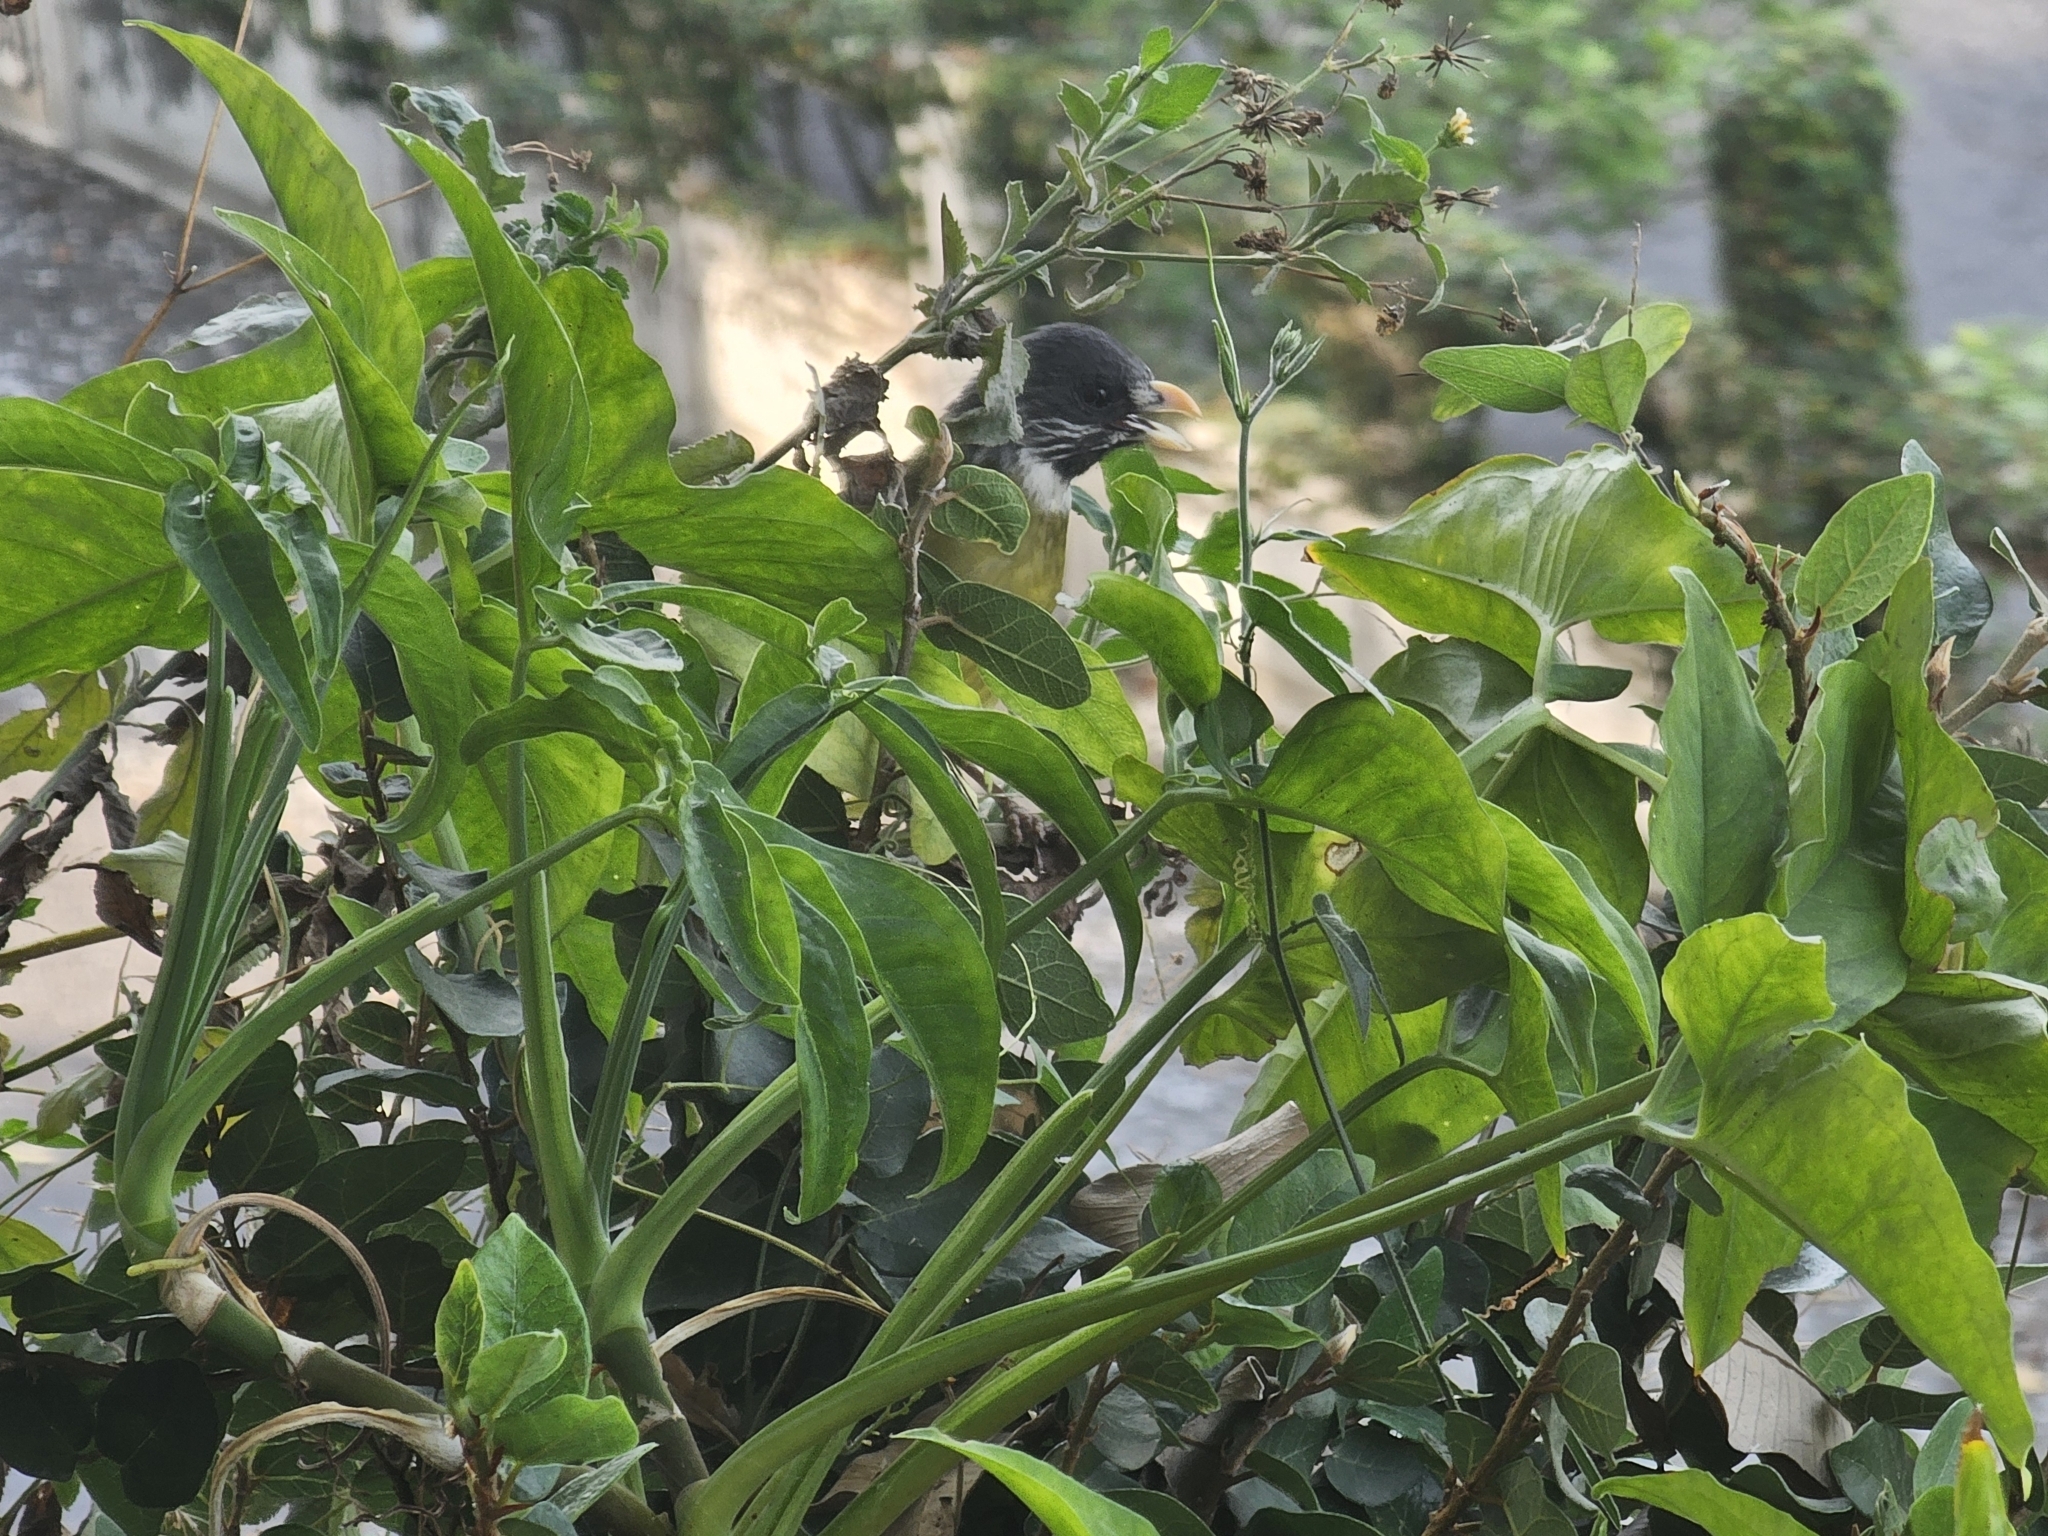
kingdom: Animalia
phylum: Chordata
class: Aves
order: Passeriformes
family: Pycnonotidae
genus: Spizixos
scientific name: Spizixos semitorques
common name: Collared finchbill
